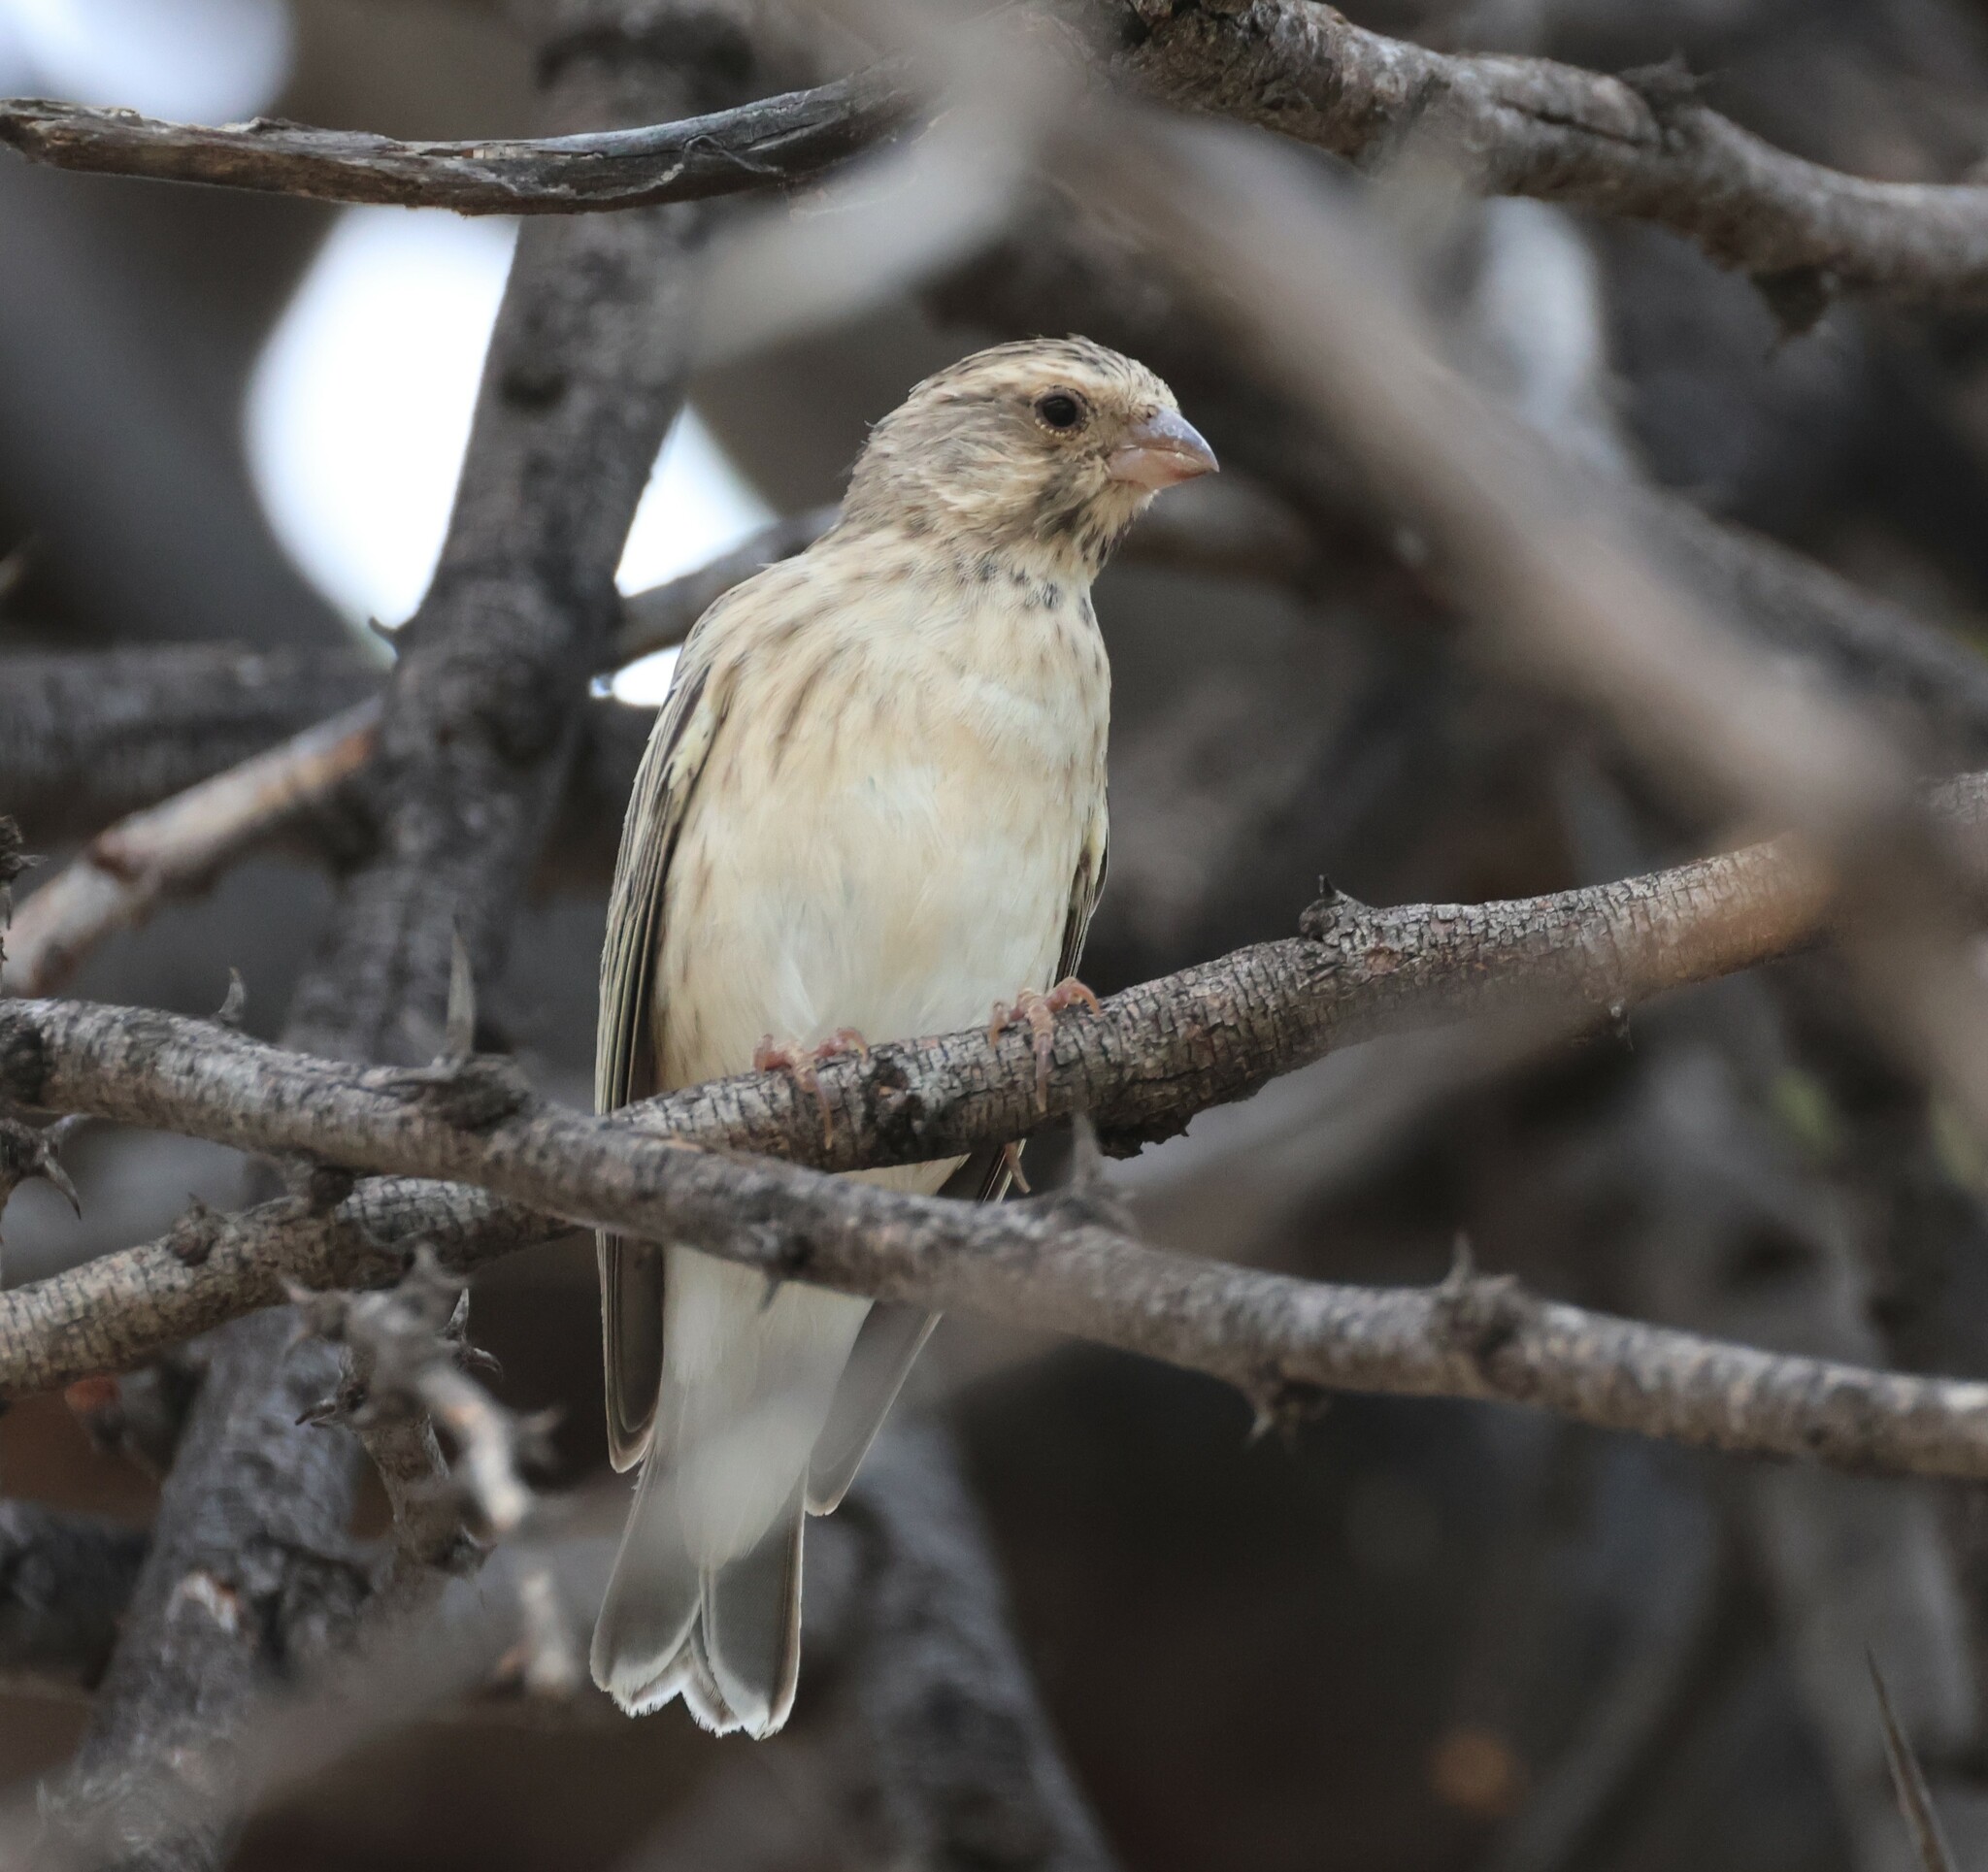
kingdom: Animalia
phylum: Chordata
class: Aves
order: Passeriformes
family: Fringillidae
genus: Crithagra
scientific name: Crithagra atrogularis
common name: Black-throated canary
